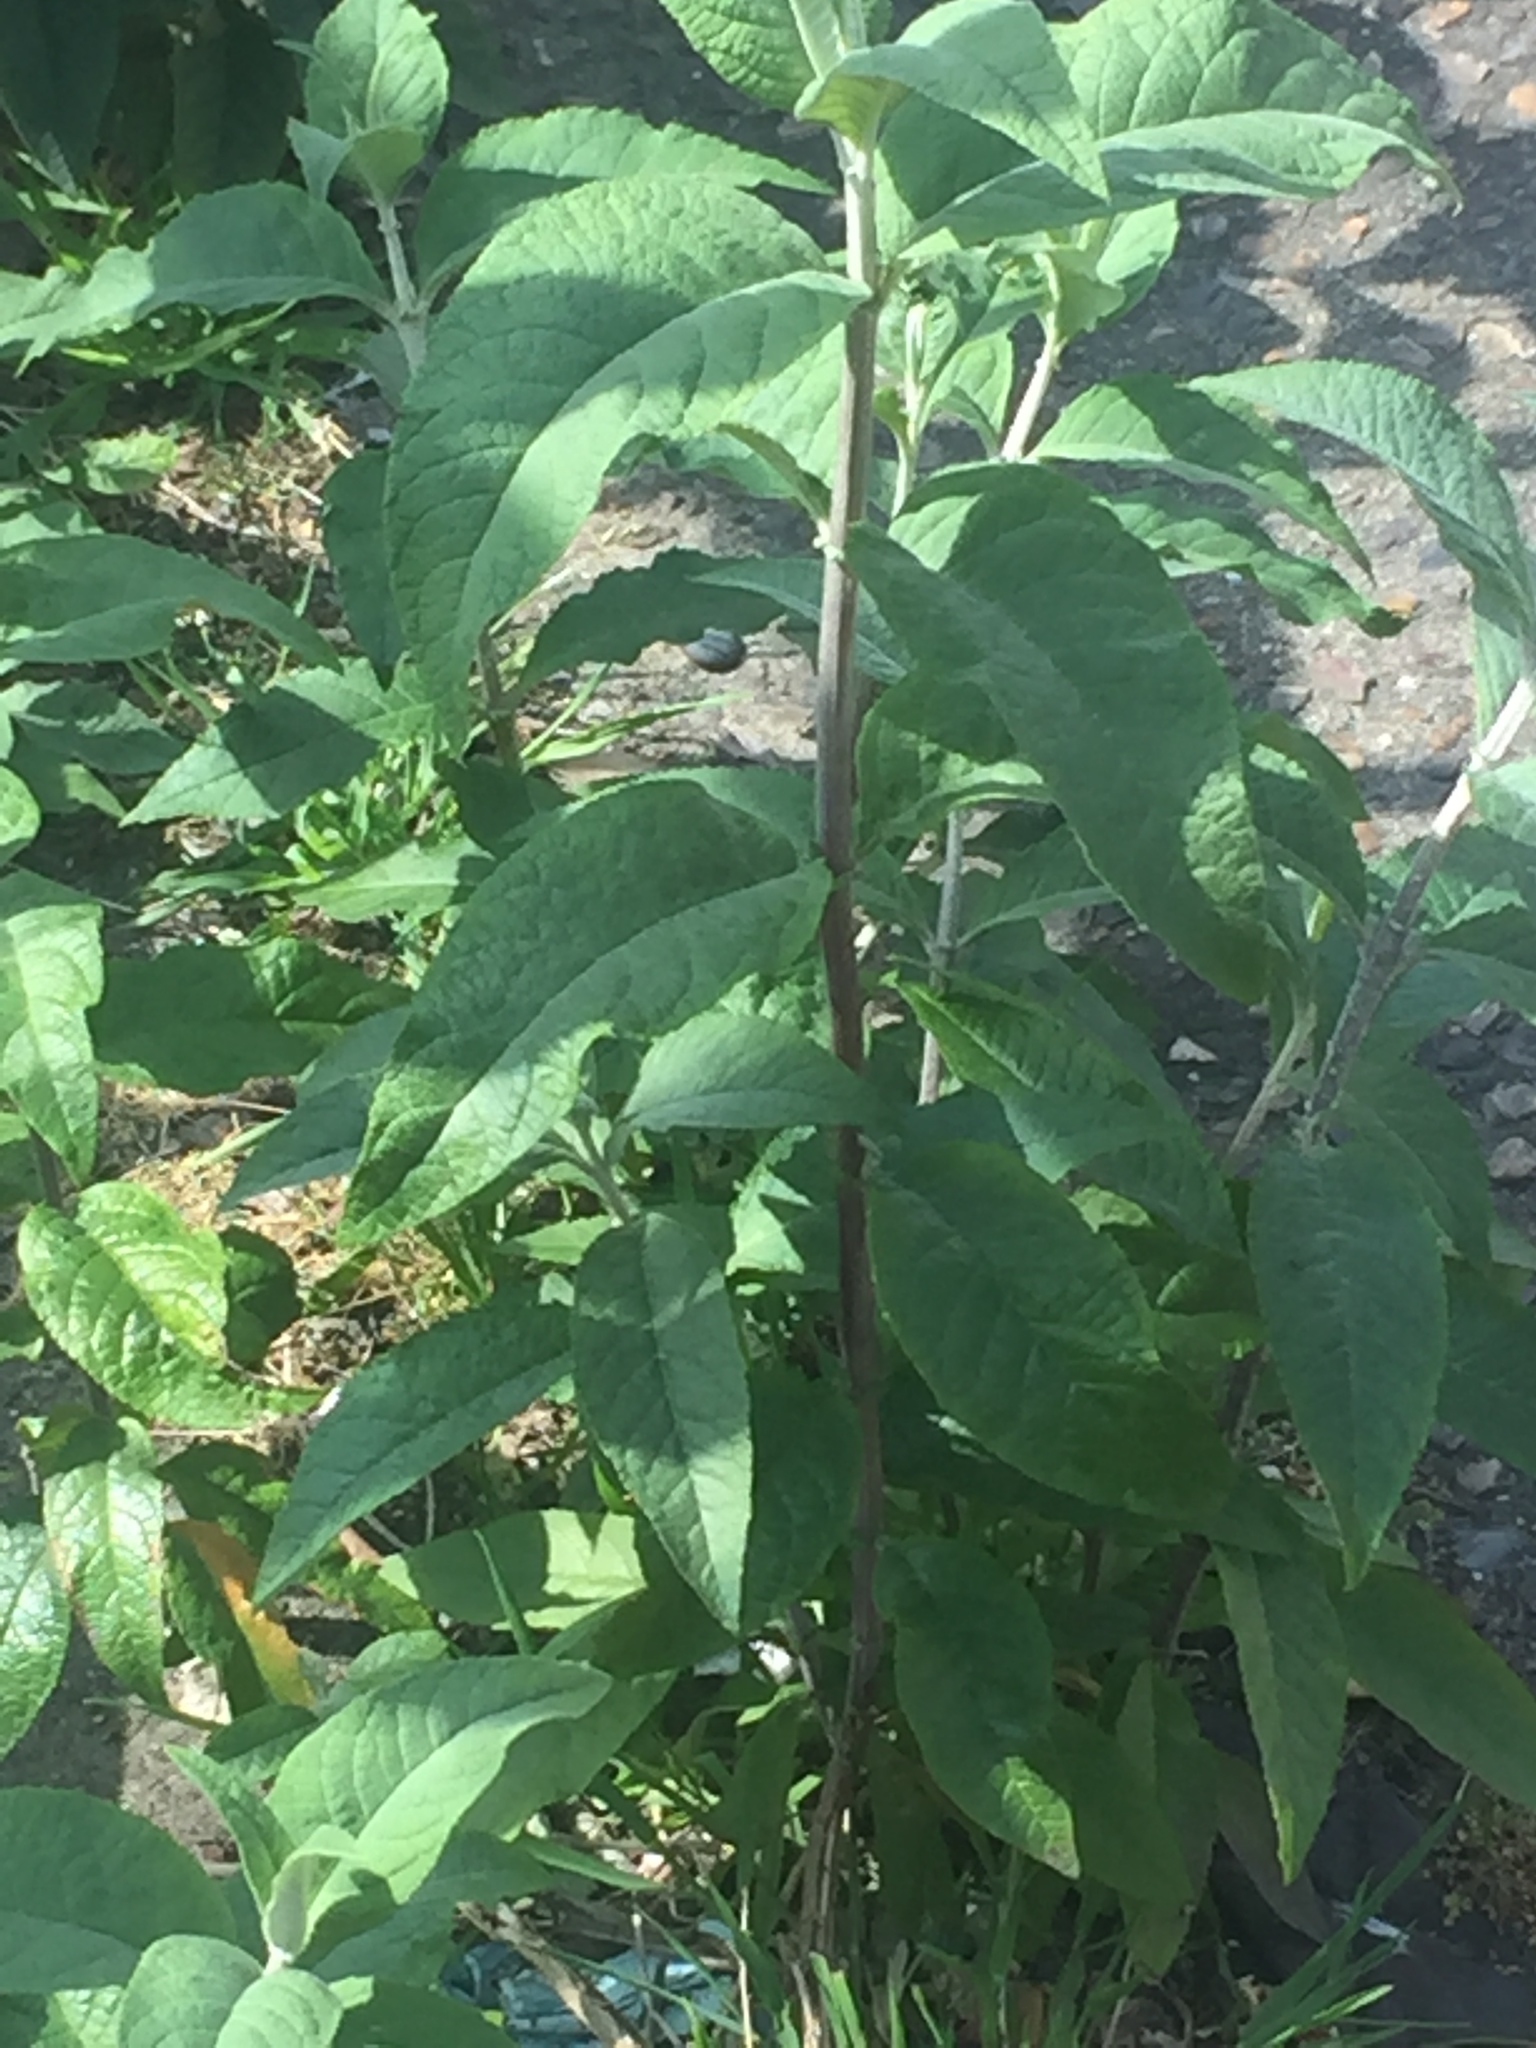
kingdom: Plantae
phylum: Tracheophyta
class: Magnoliopsida
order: Lamiales
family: Scrophulariaceae
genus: Buddleja
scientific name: Buddleja davidii
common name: Butterfly-bush
